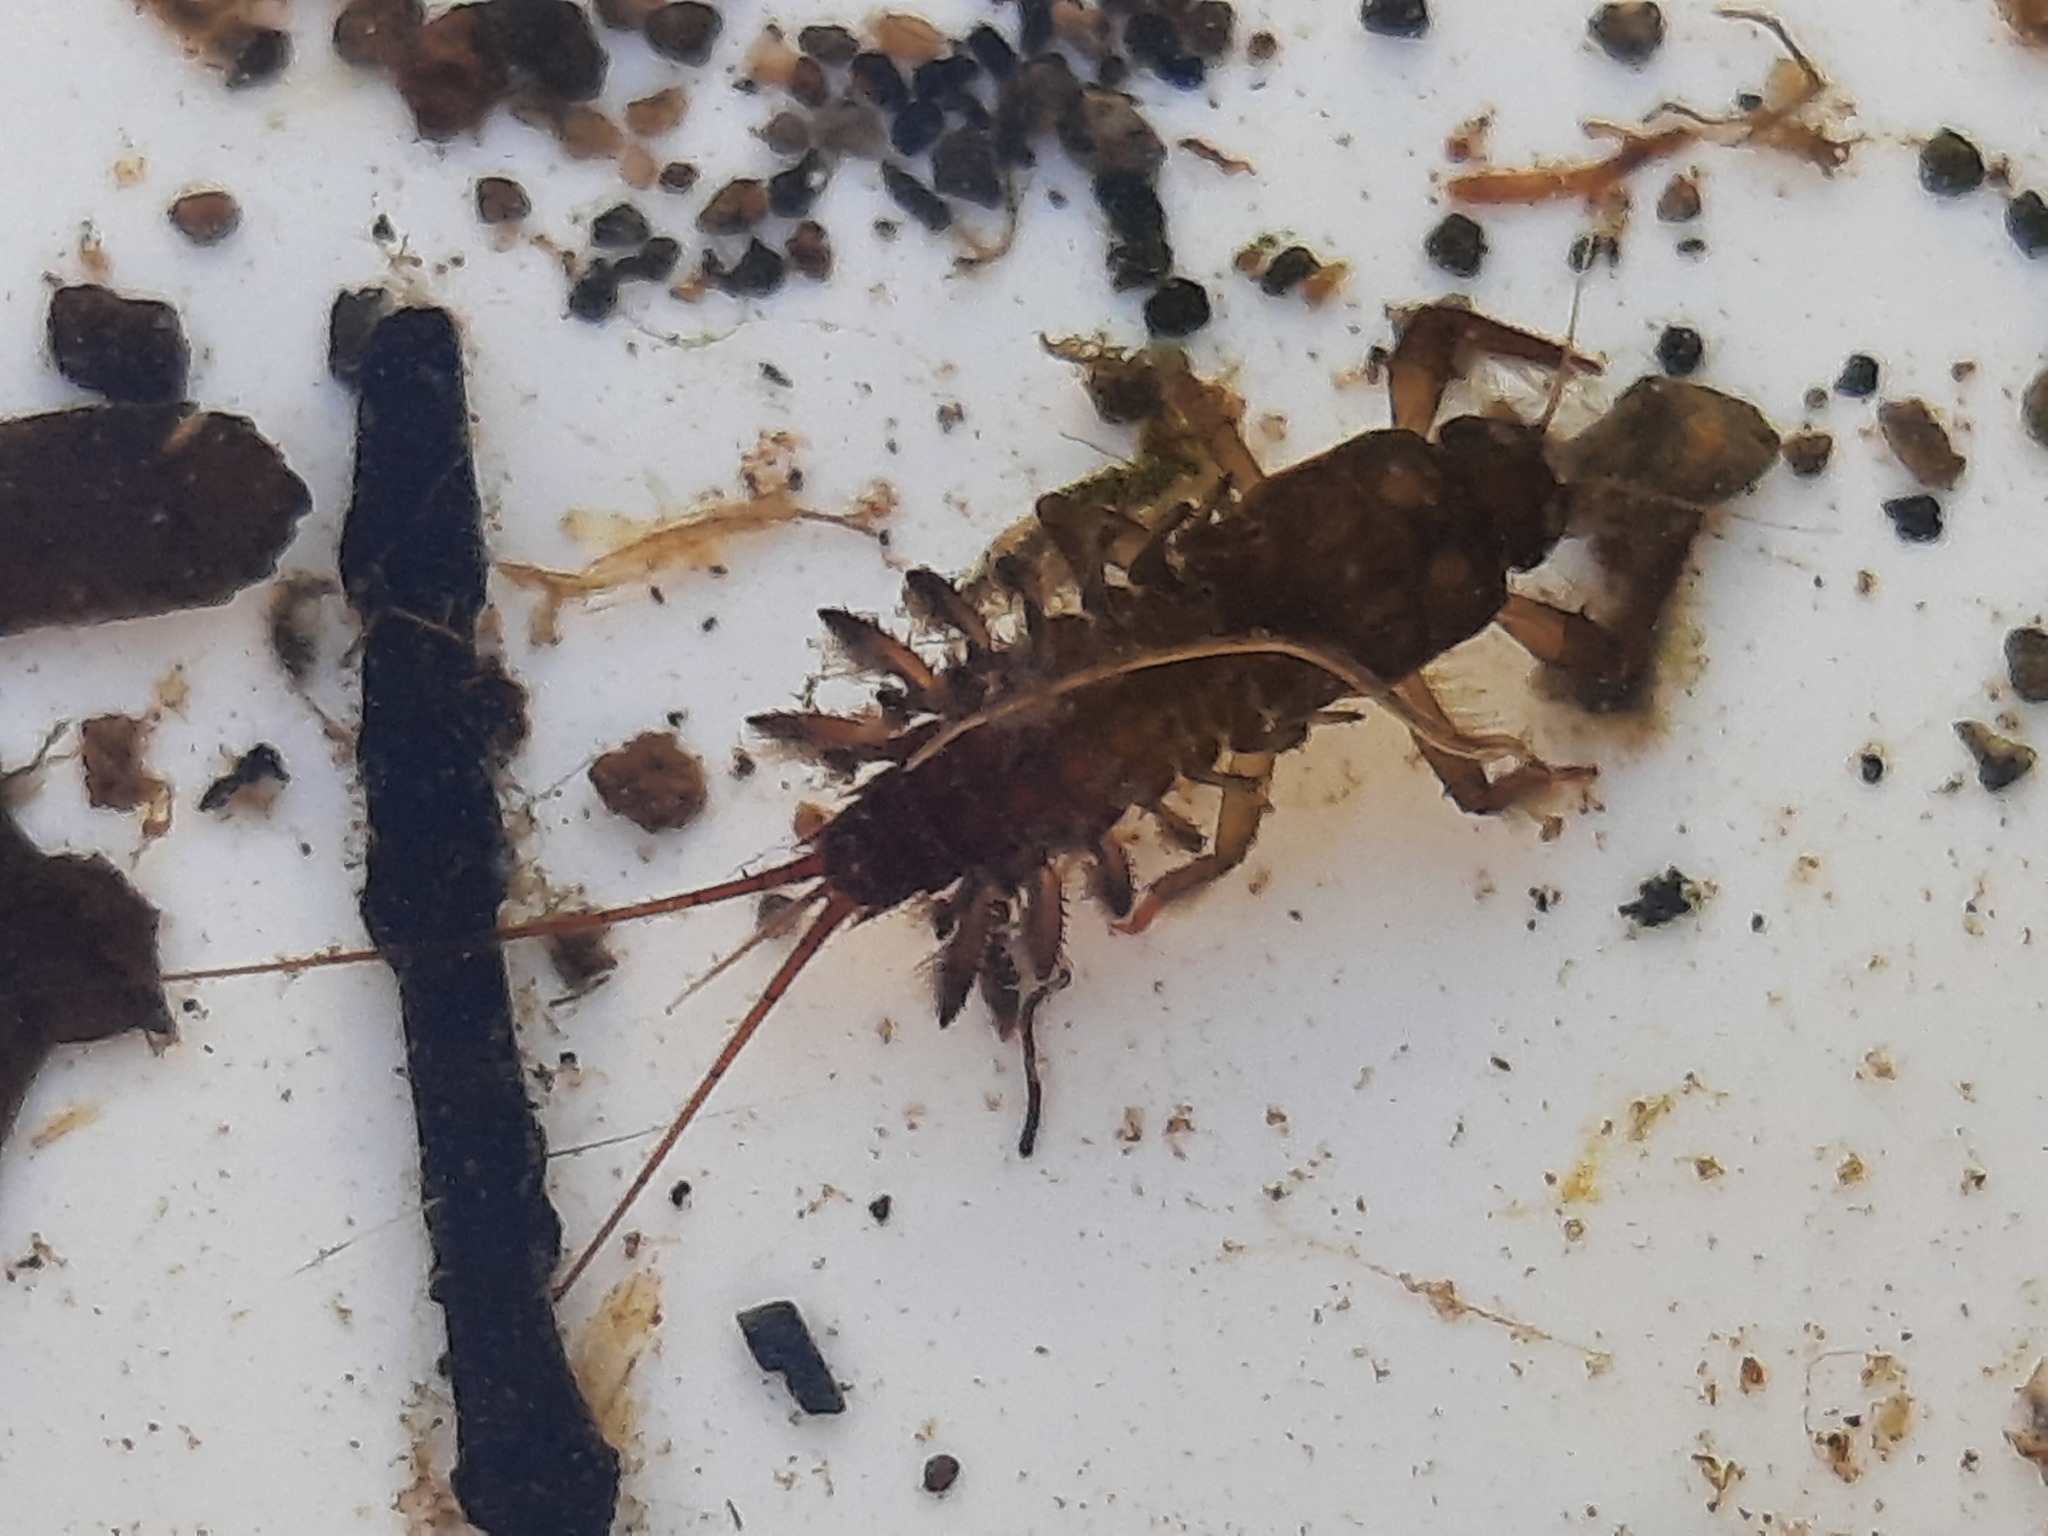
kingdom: Animalia
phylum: Arthropoda
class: Insecta
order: Ephemeroptera
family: Coloburiscidae
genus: Coloburiscus
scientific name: Coloburiscus humeralis
